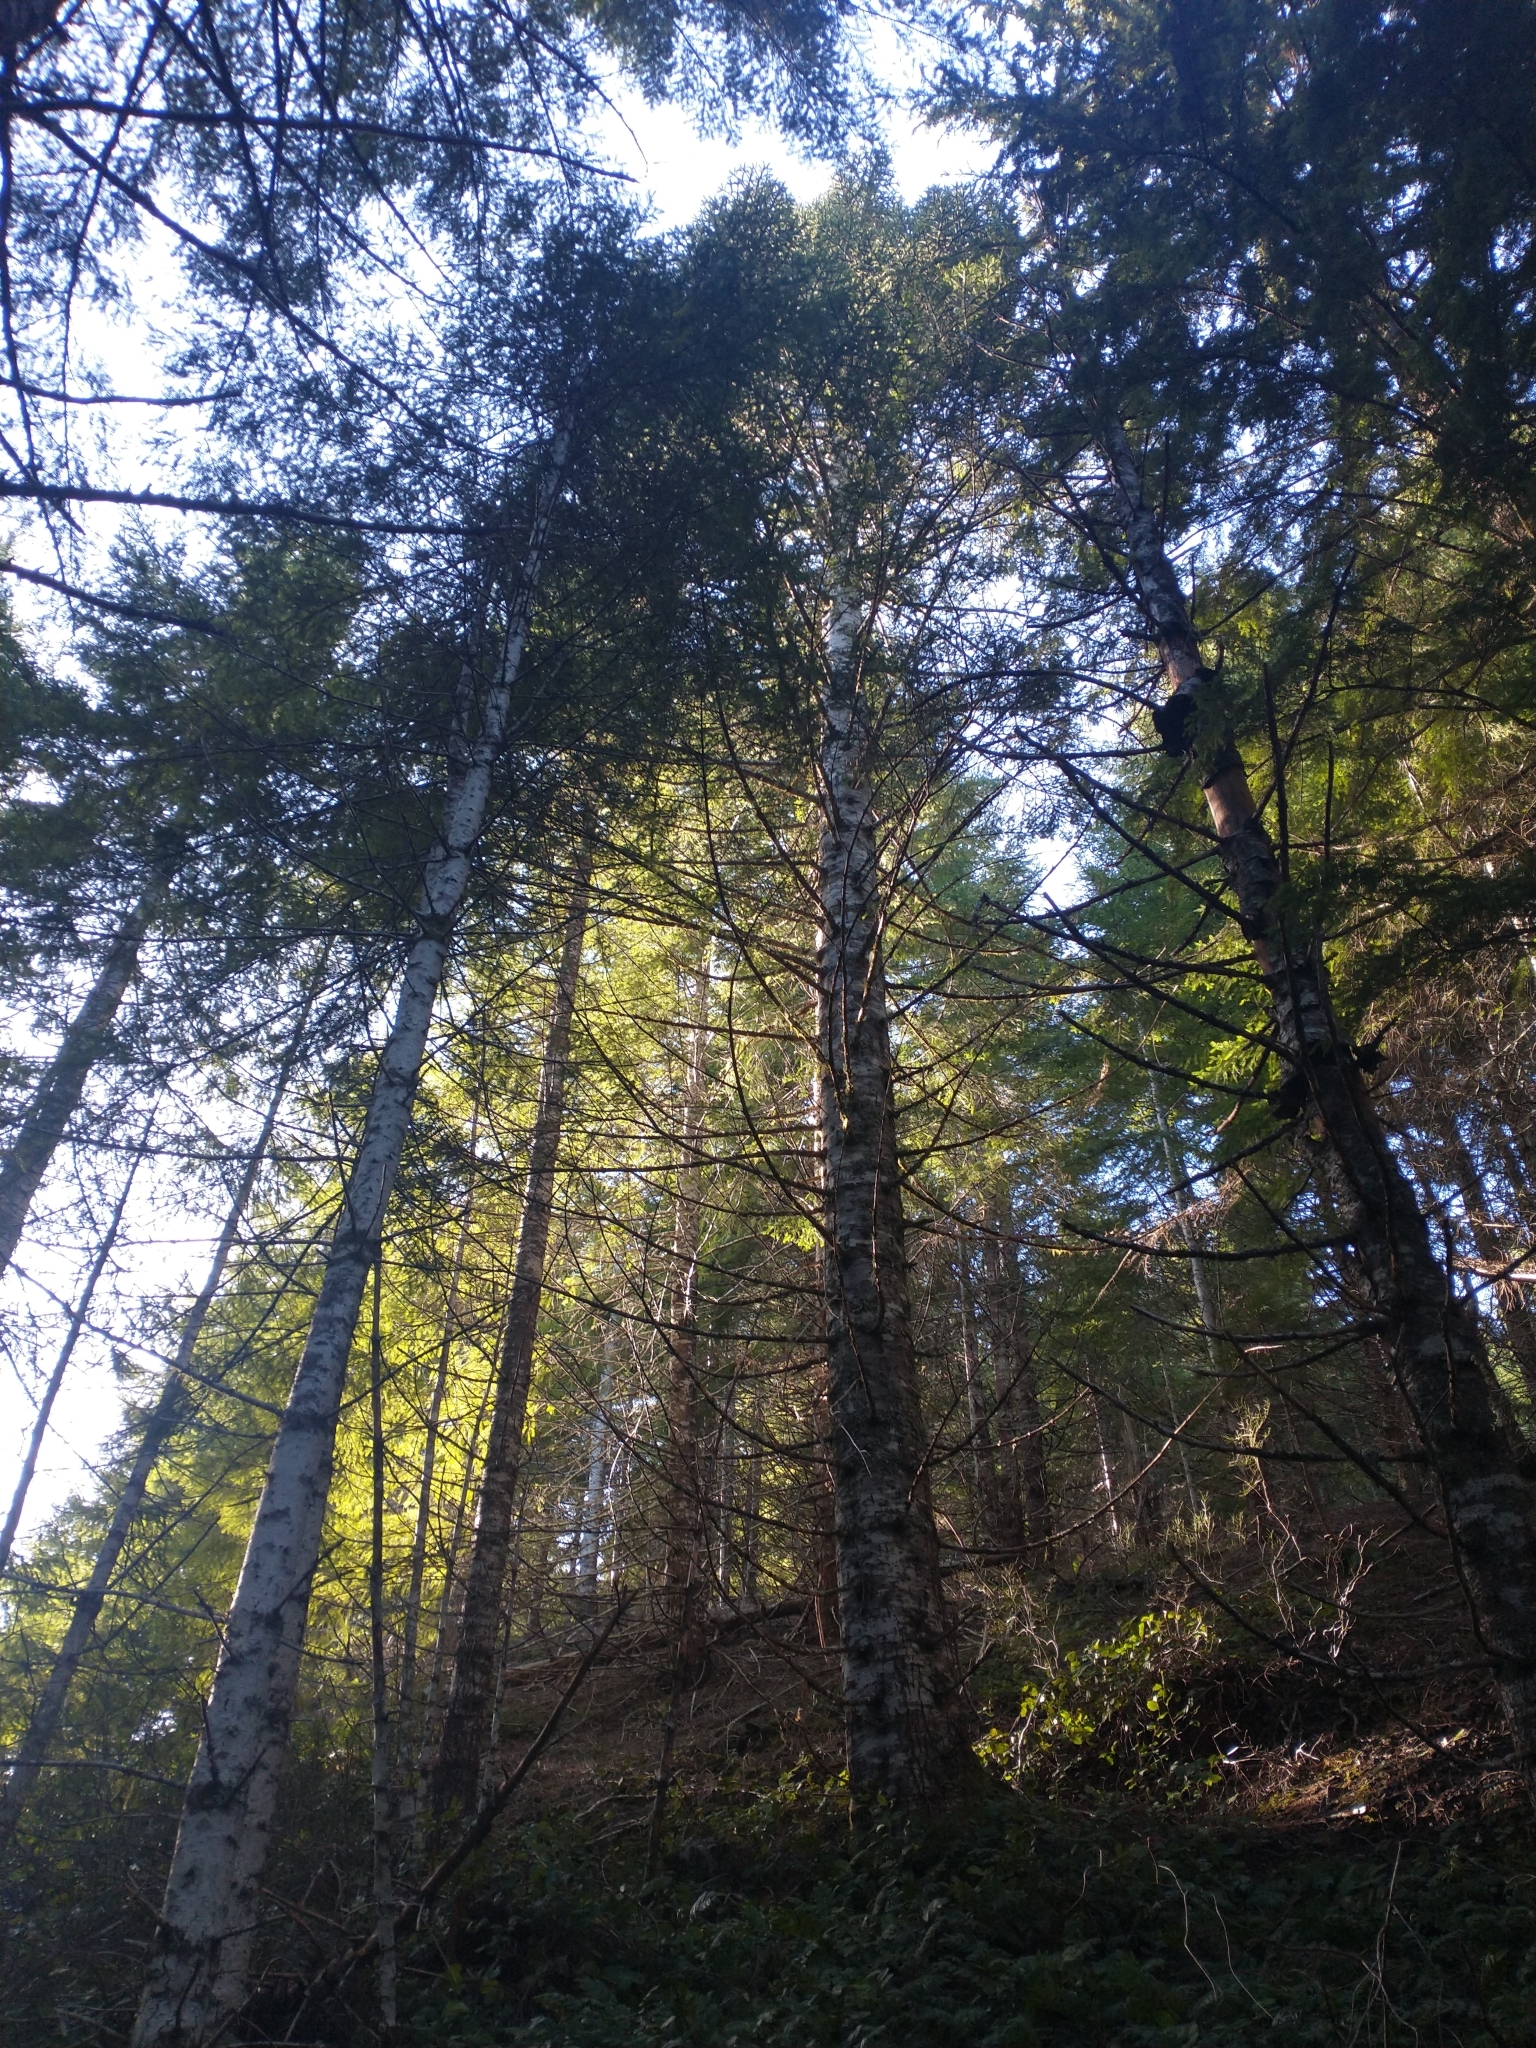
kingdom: Plantae
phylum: Tracheophyta
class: Pinopsida
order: Pinales
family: Pinaceae
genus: Abies
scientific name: Abies procera
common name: Noble fir
